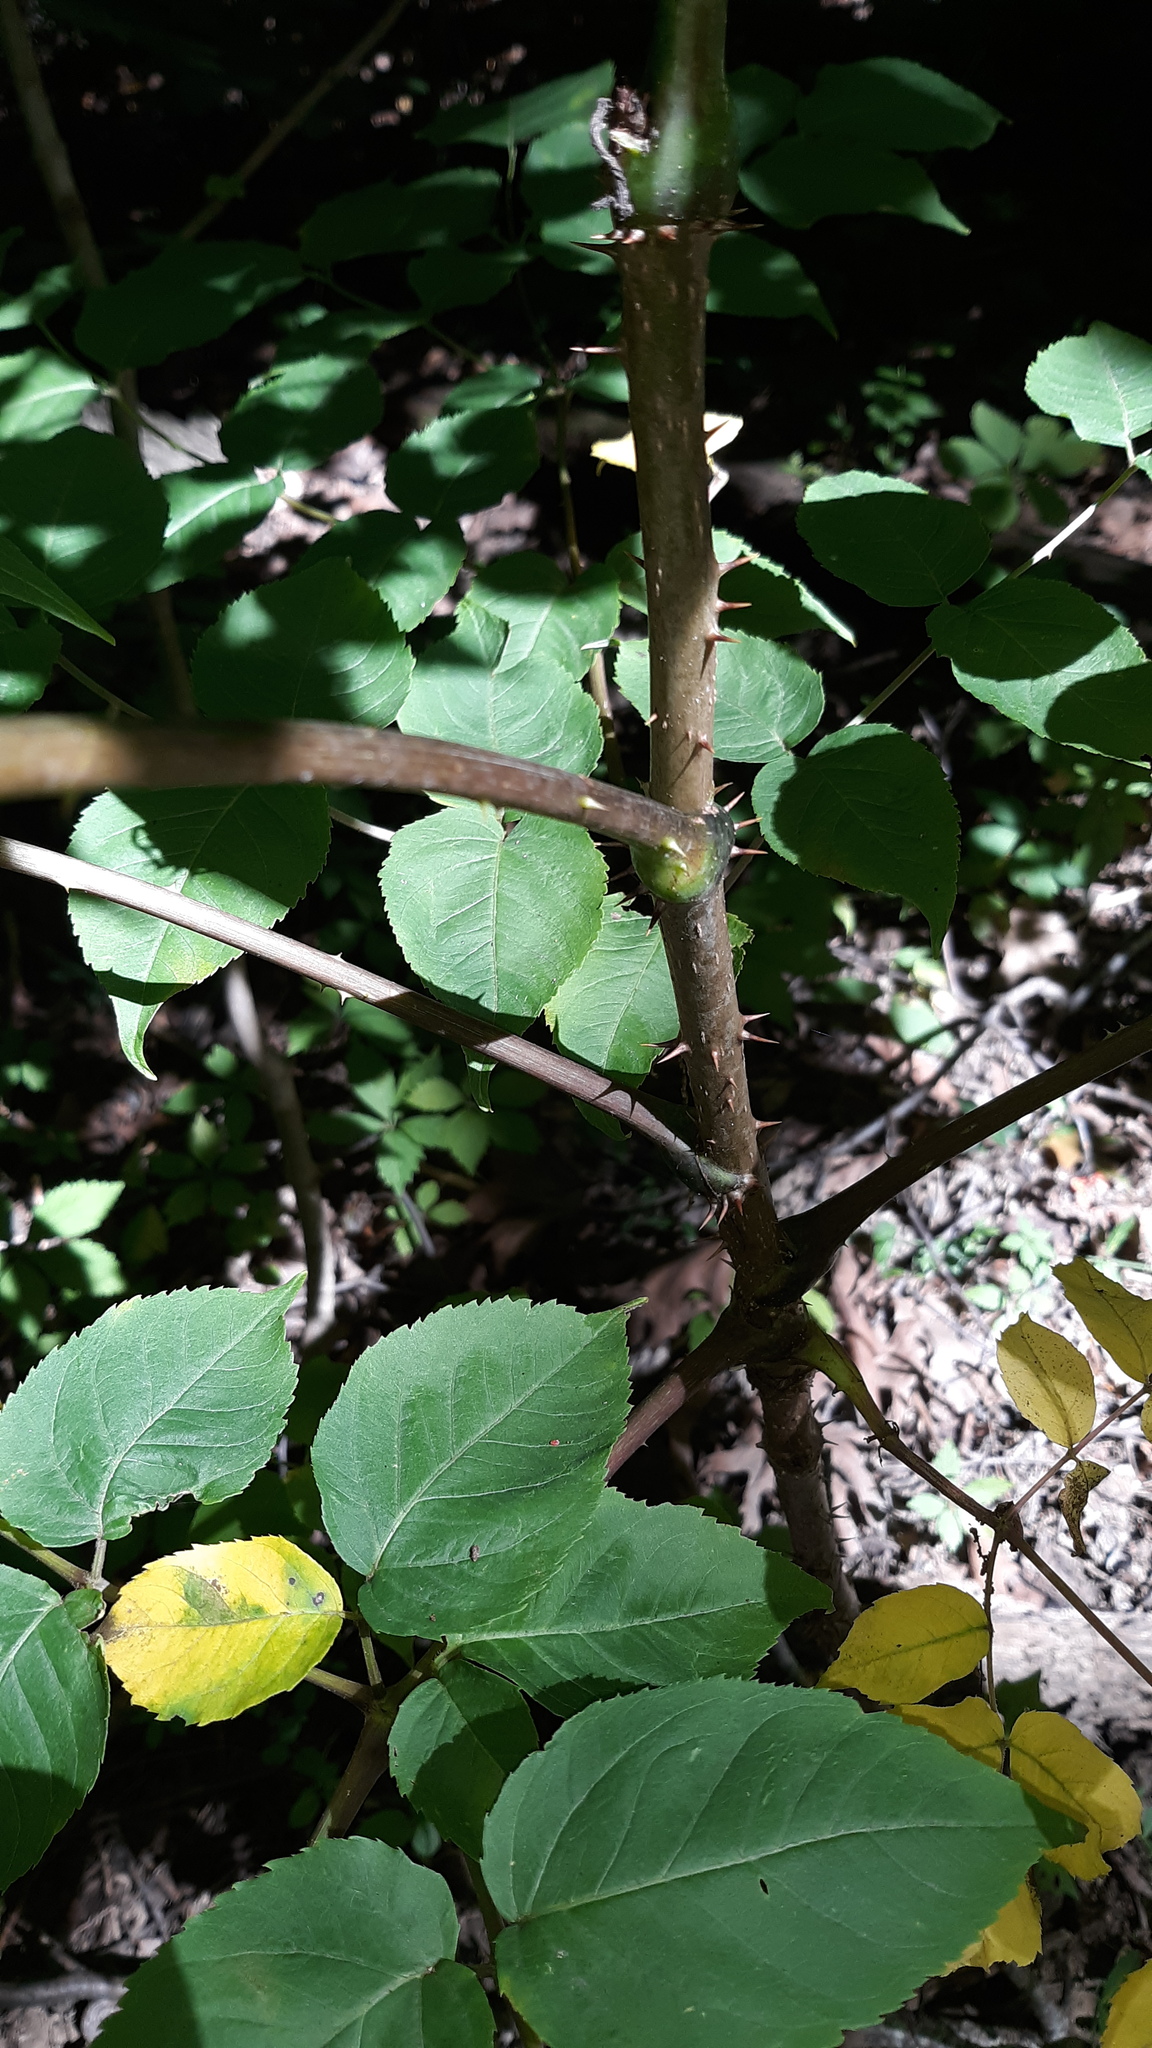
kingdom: Plantae
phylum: Tracheophyta
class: Magnoliopsida
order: Apiales
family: Araliaceae
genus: Aralia
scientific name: Aralia spinosa
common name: Hercules'-club
